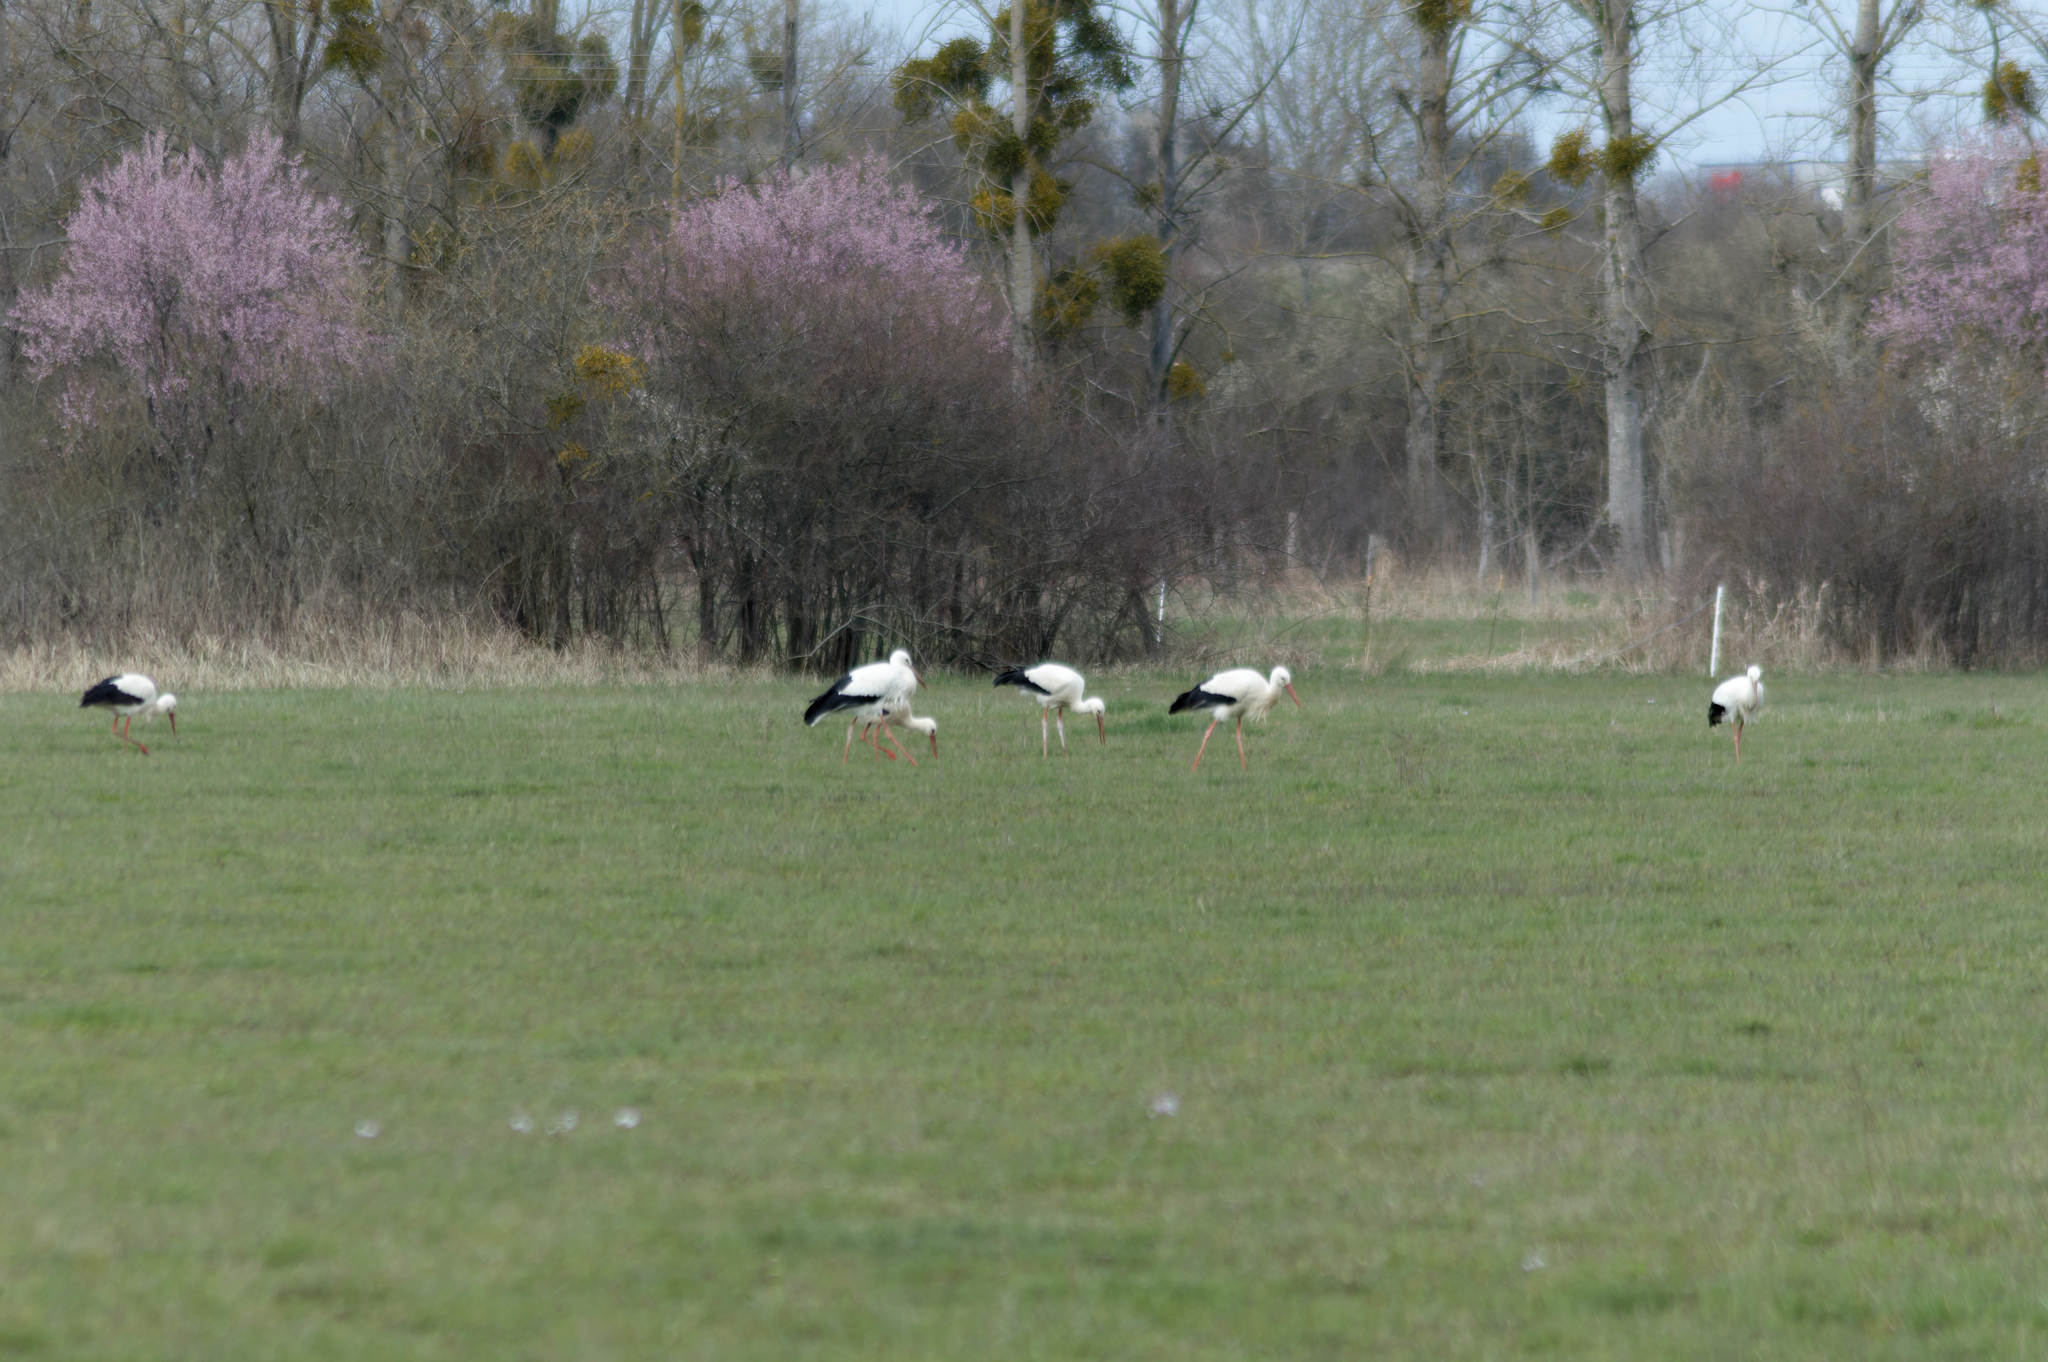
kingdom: Animalia
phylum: Chordata
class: Aves
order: Ciconiiformes
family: Ciconiidae
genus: Ciconia
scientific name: Ciconia ciconia
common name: White stork
